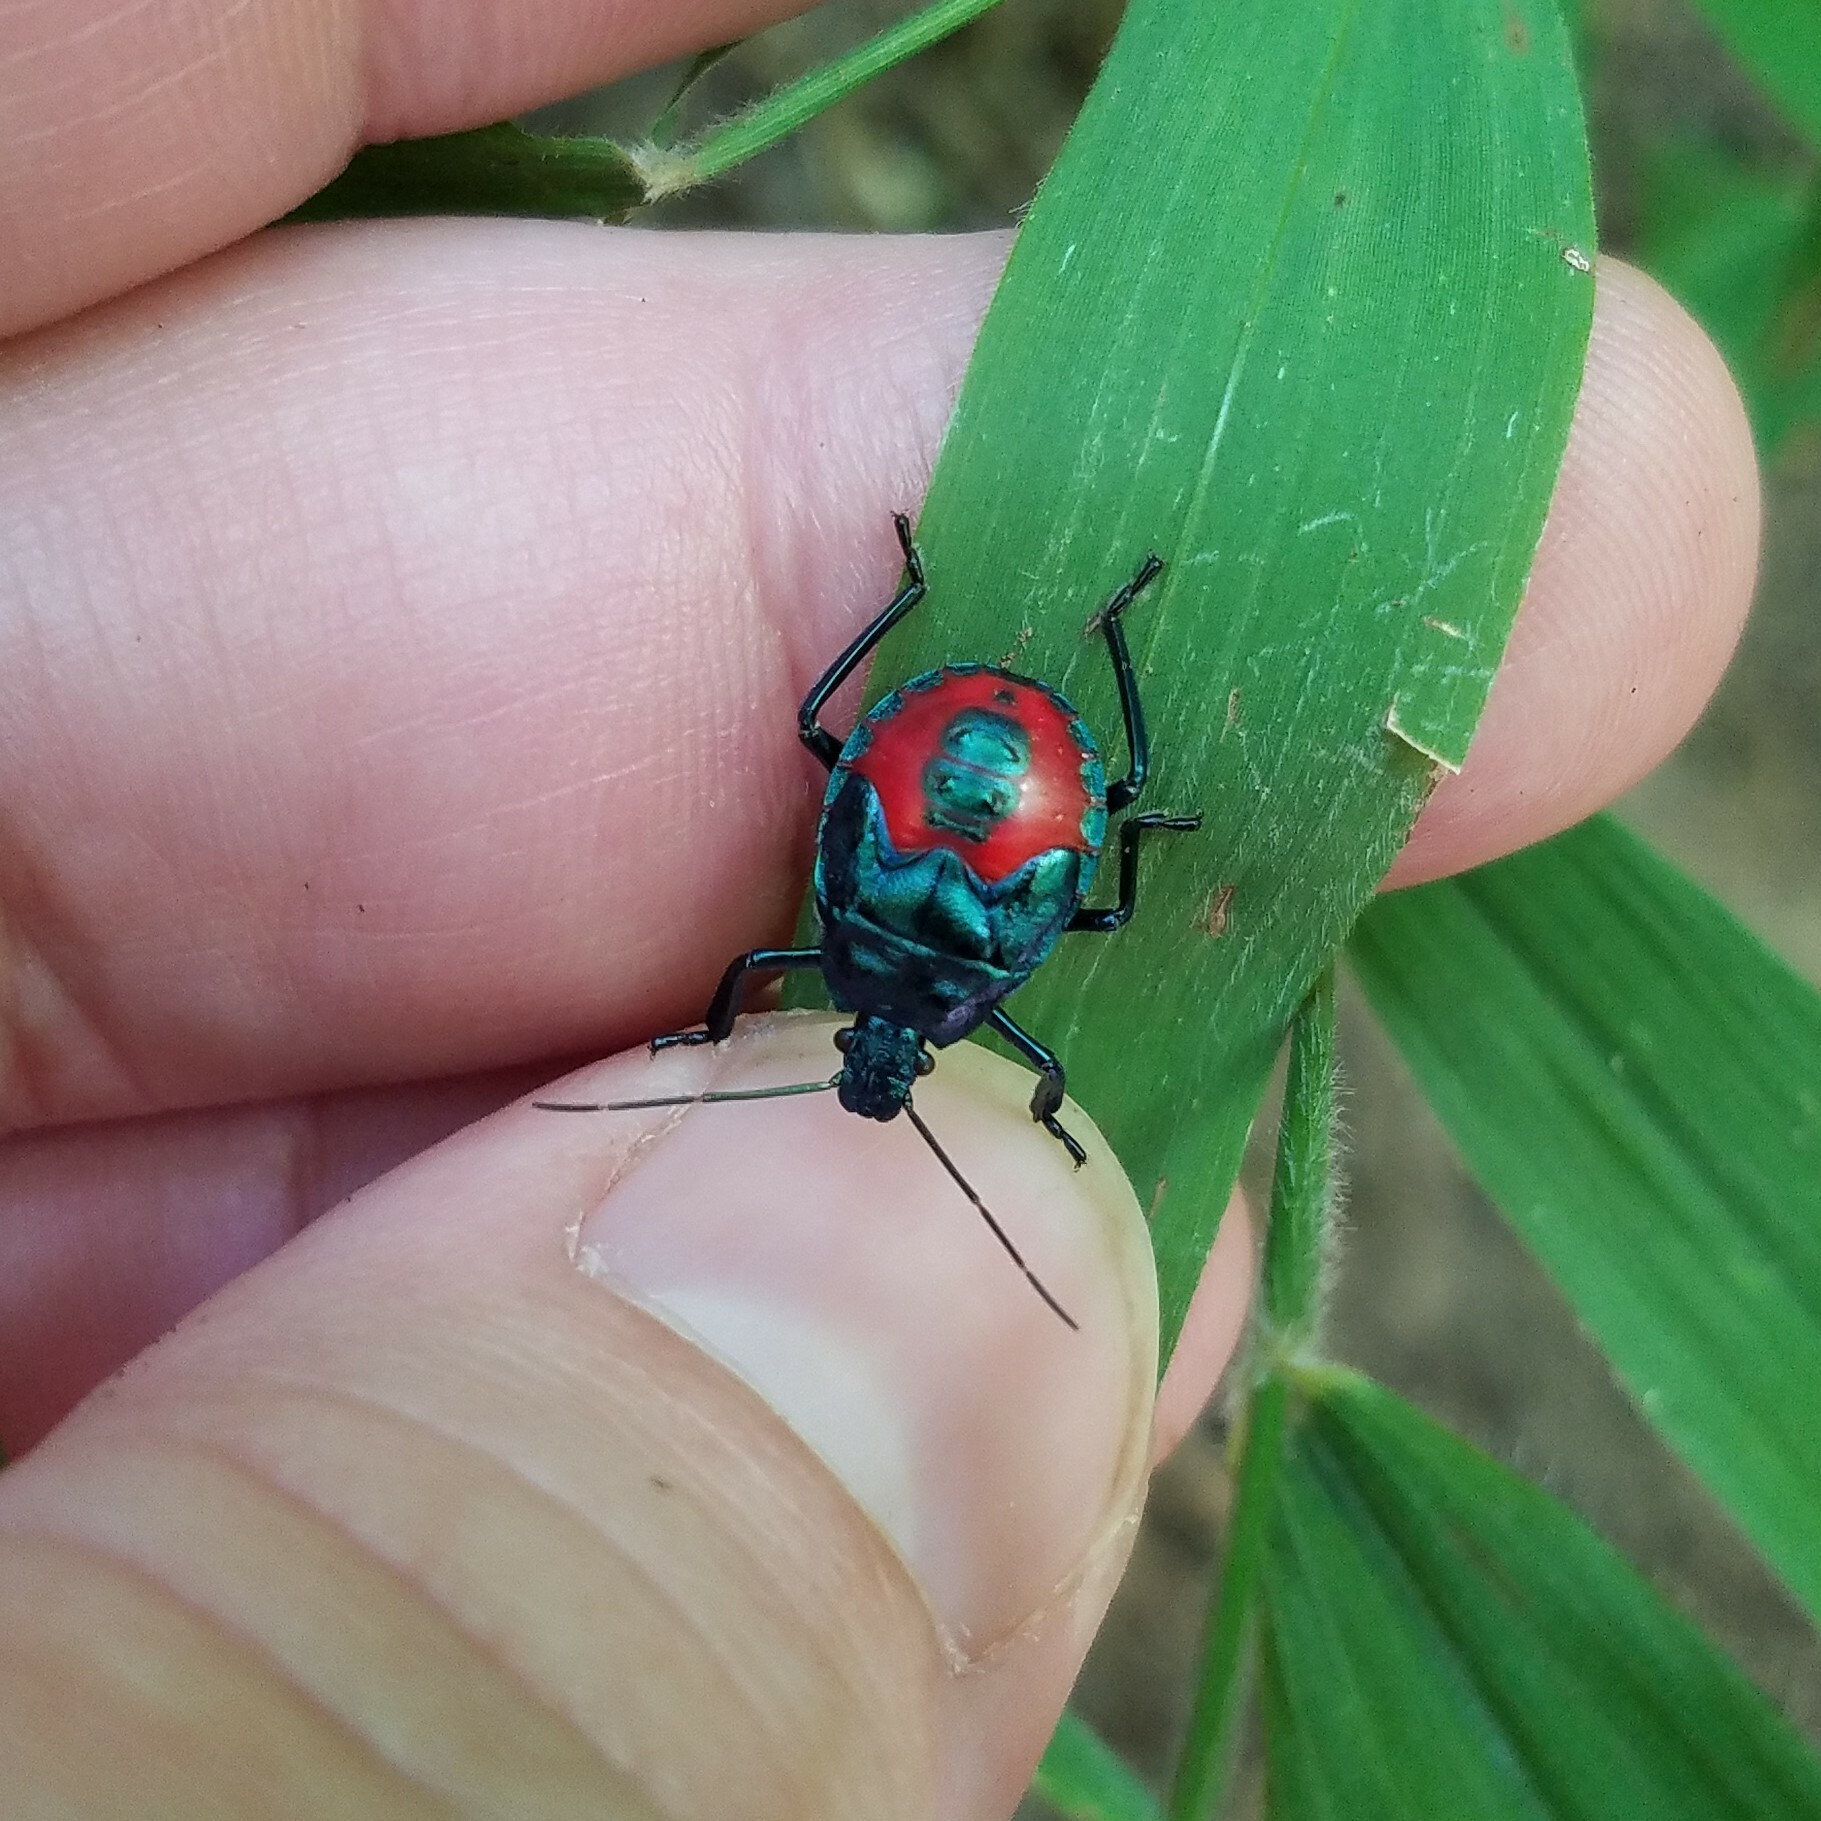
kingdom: Animalia
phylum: Arthropoda
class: Insecta
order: Hemiptera
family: Pentatomidae
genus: Euthyrhynchus
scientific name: Euthyrhynchus floridanus
